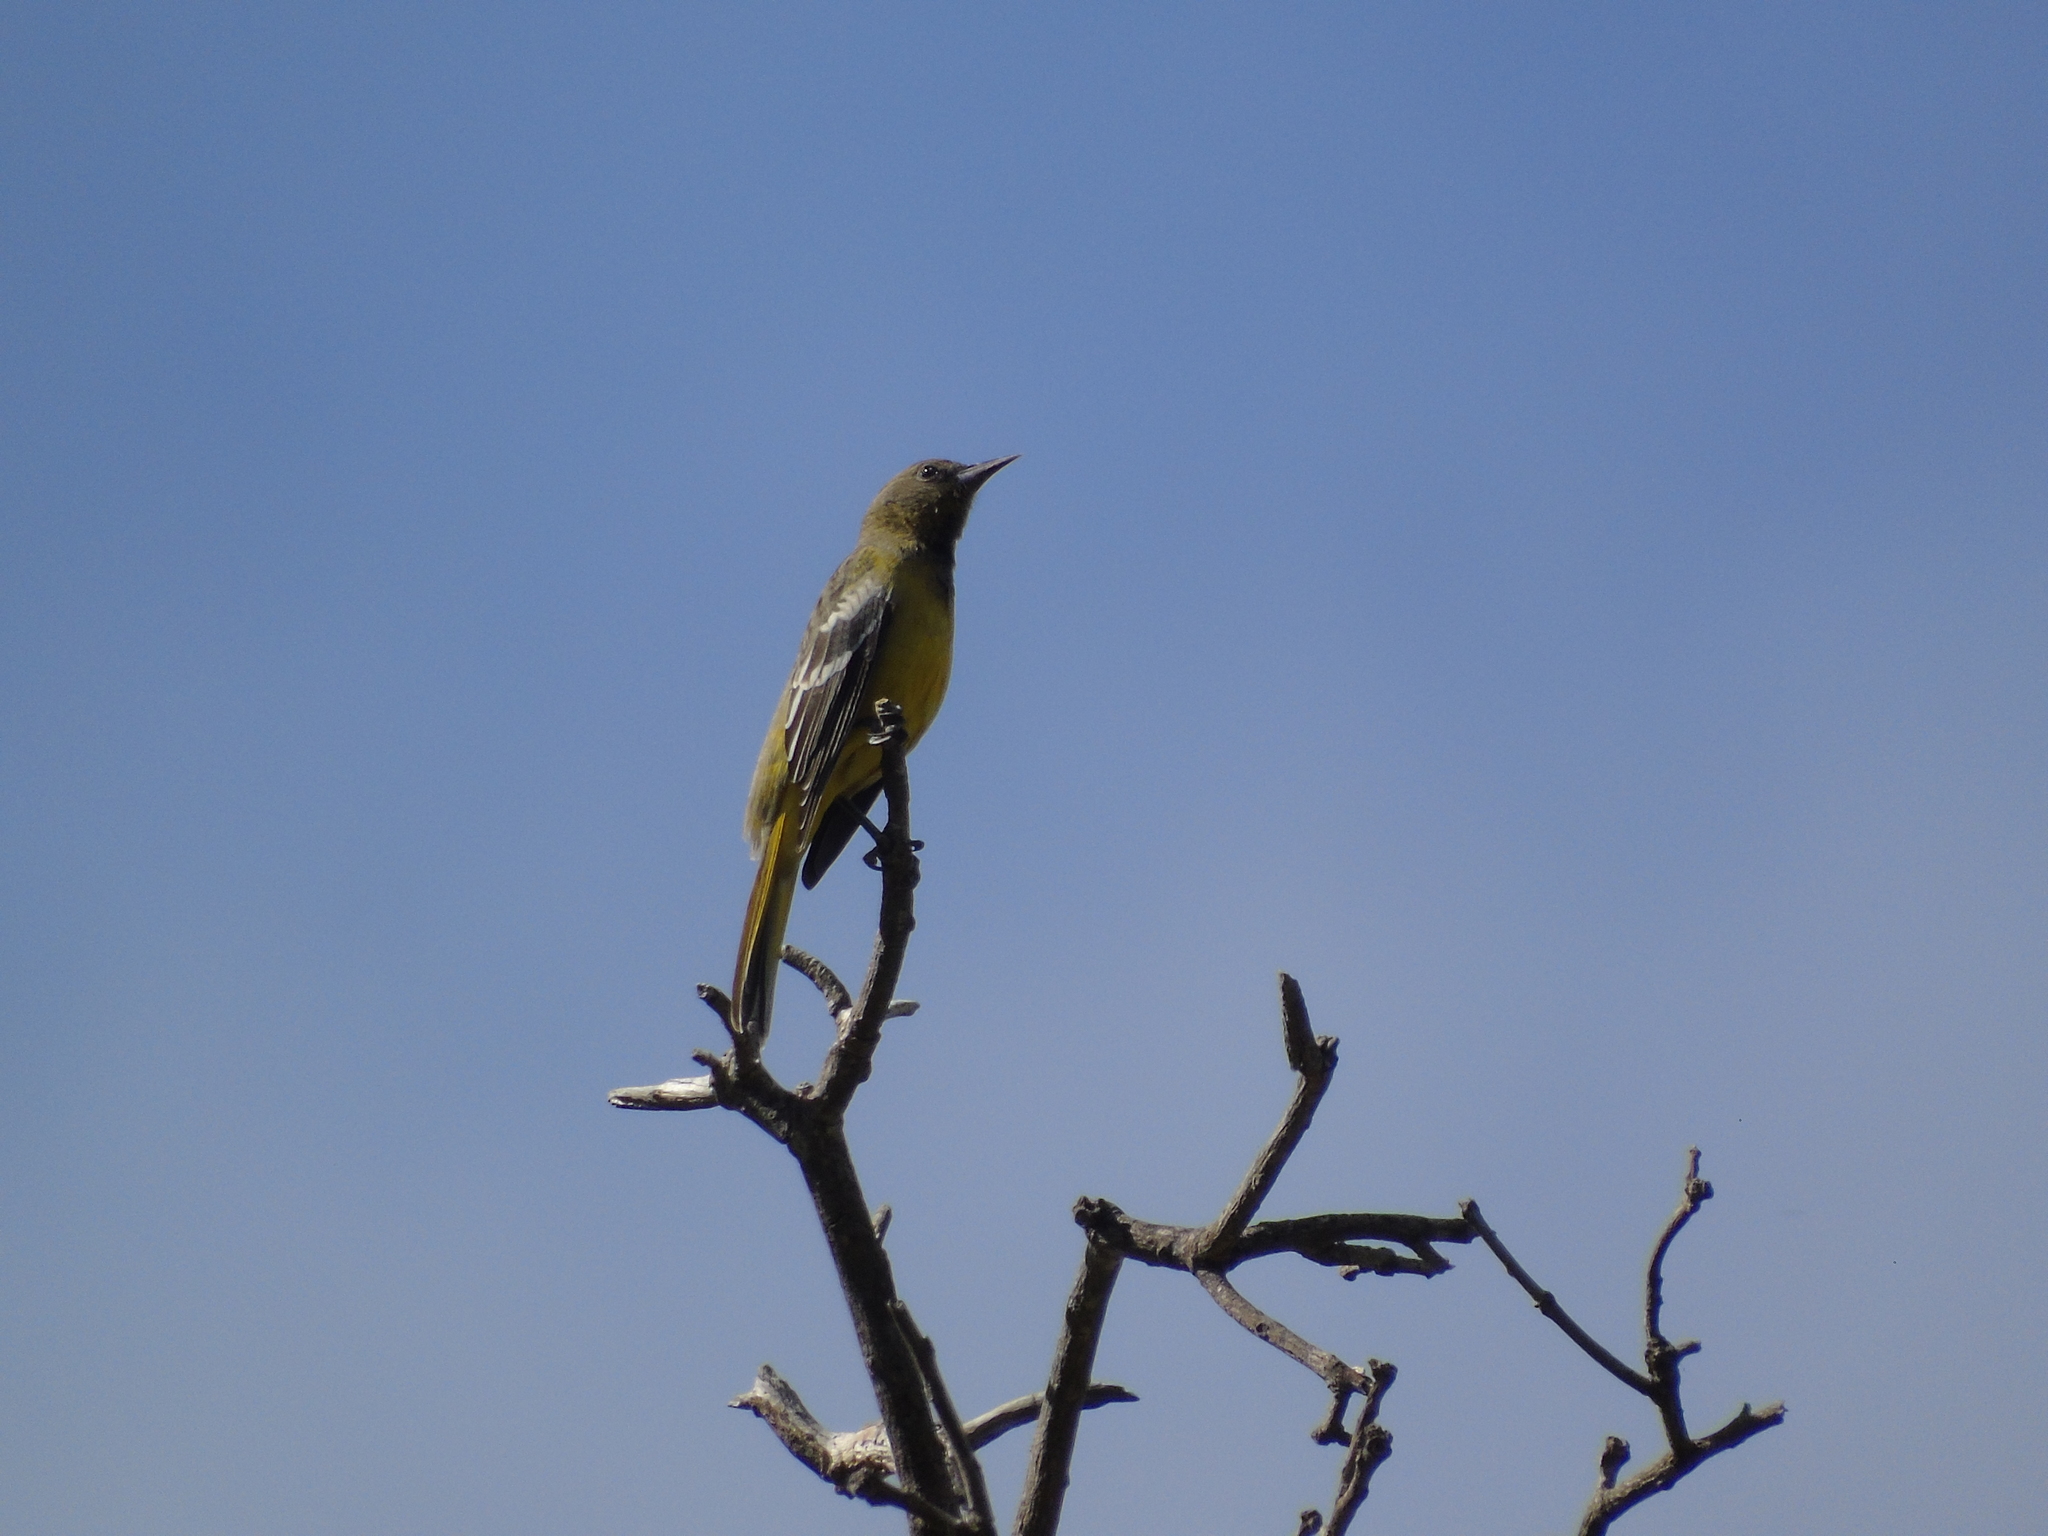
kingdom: Animalia
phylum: Chordata
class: Aves
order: Passeriformes
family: Icteridae
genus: Icterus
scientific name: Icterus parisorum
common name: Scott's oriole
